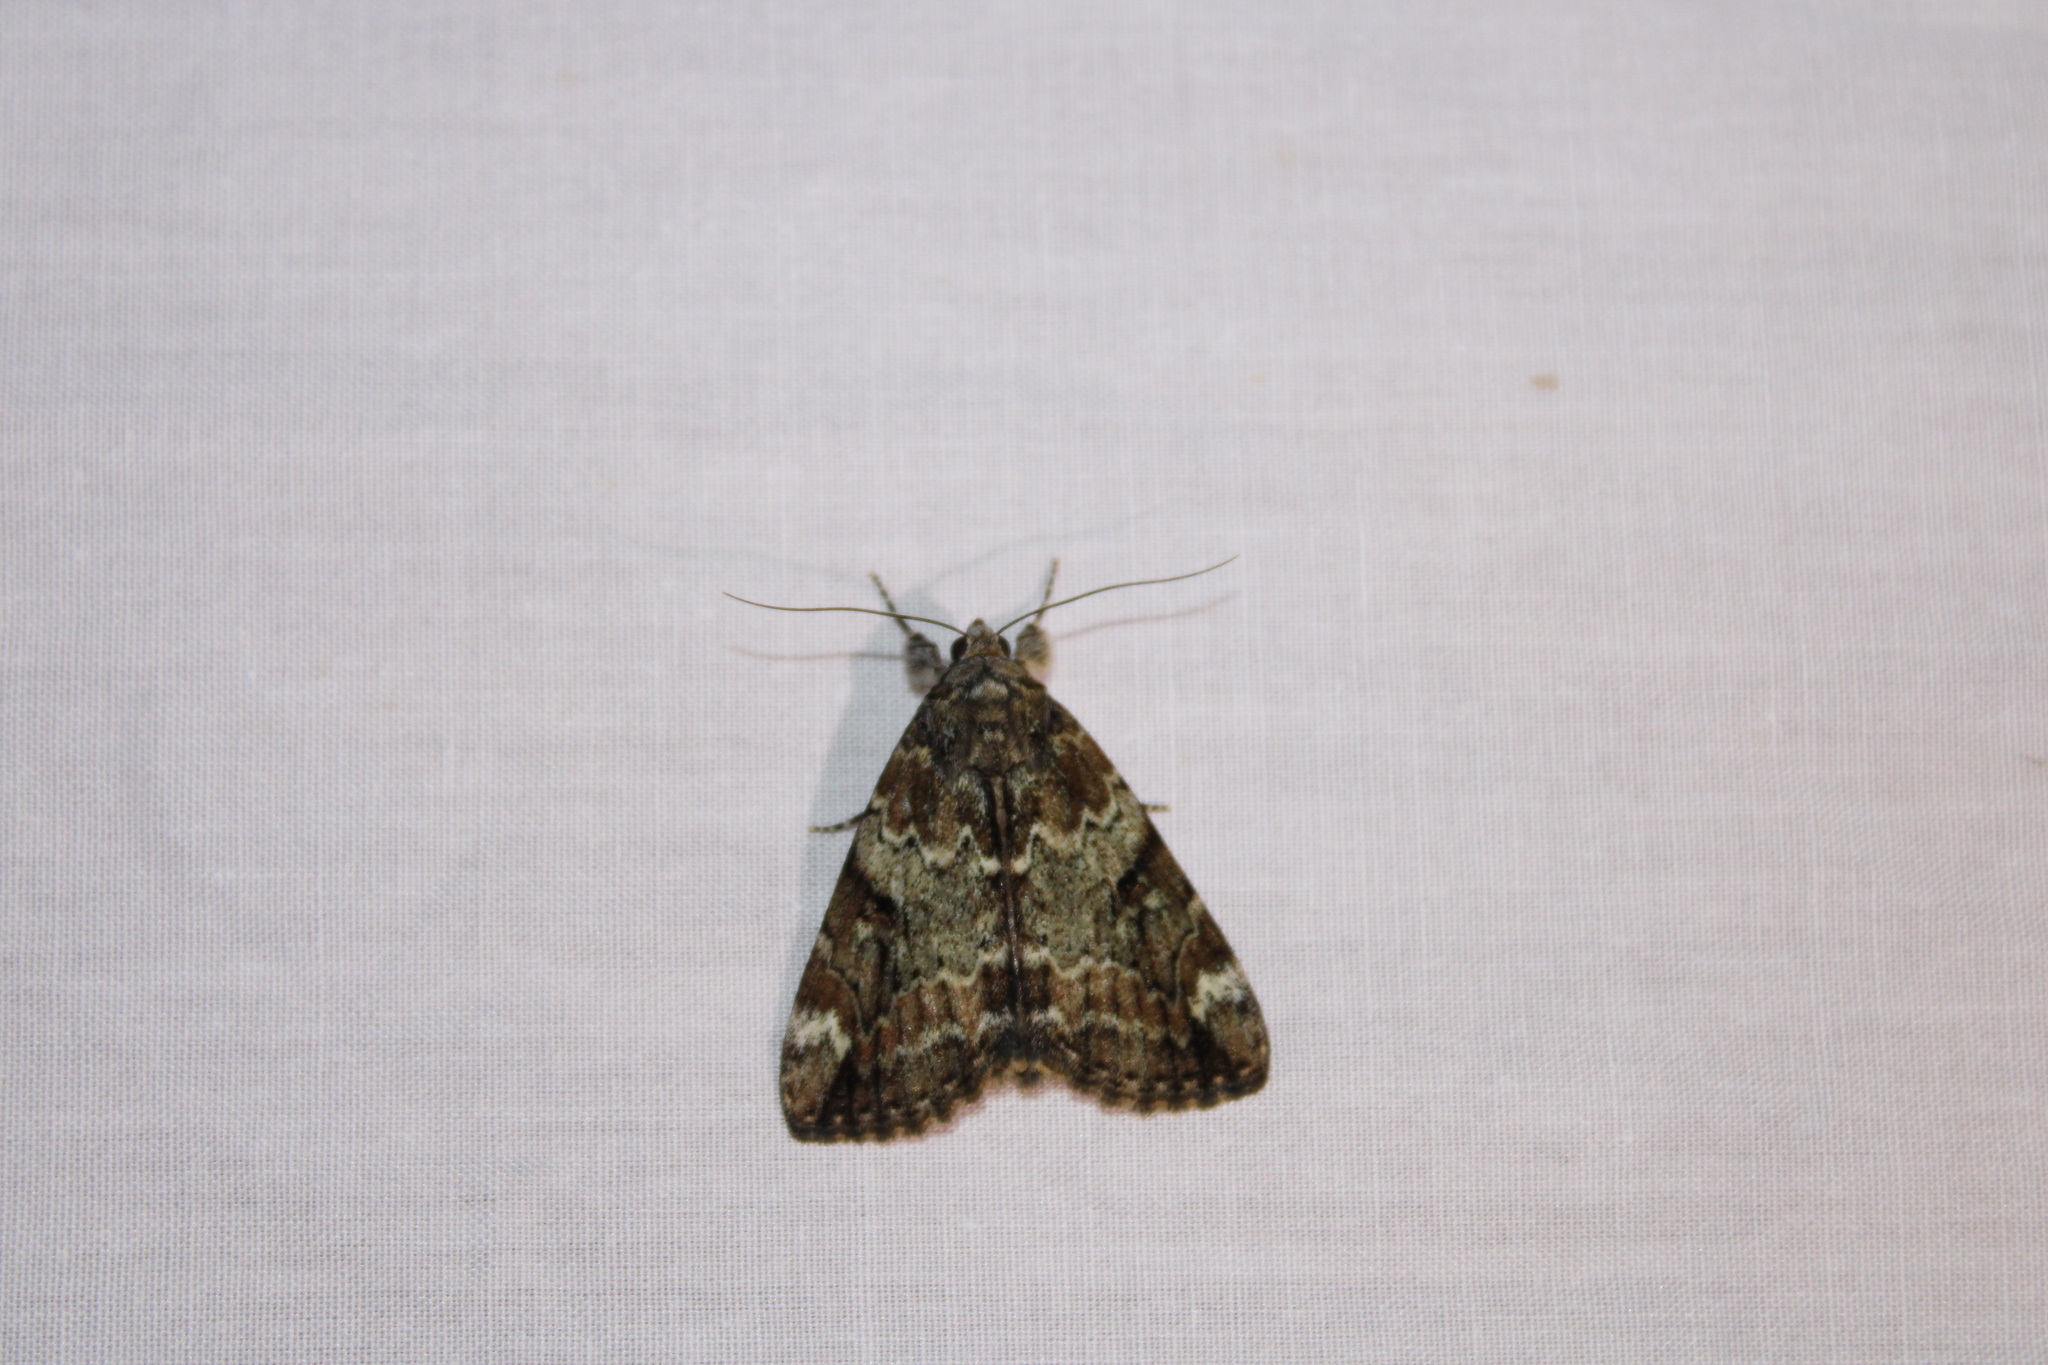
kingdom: Animalia
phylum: Arthropoda
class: Insecta
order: Lepidoptera
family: Erebidae
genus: Catocala
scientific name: Catocala micronympha
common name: Little nymph underwing
